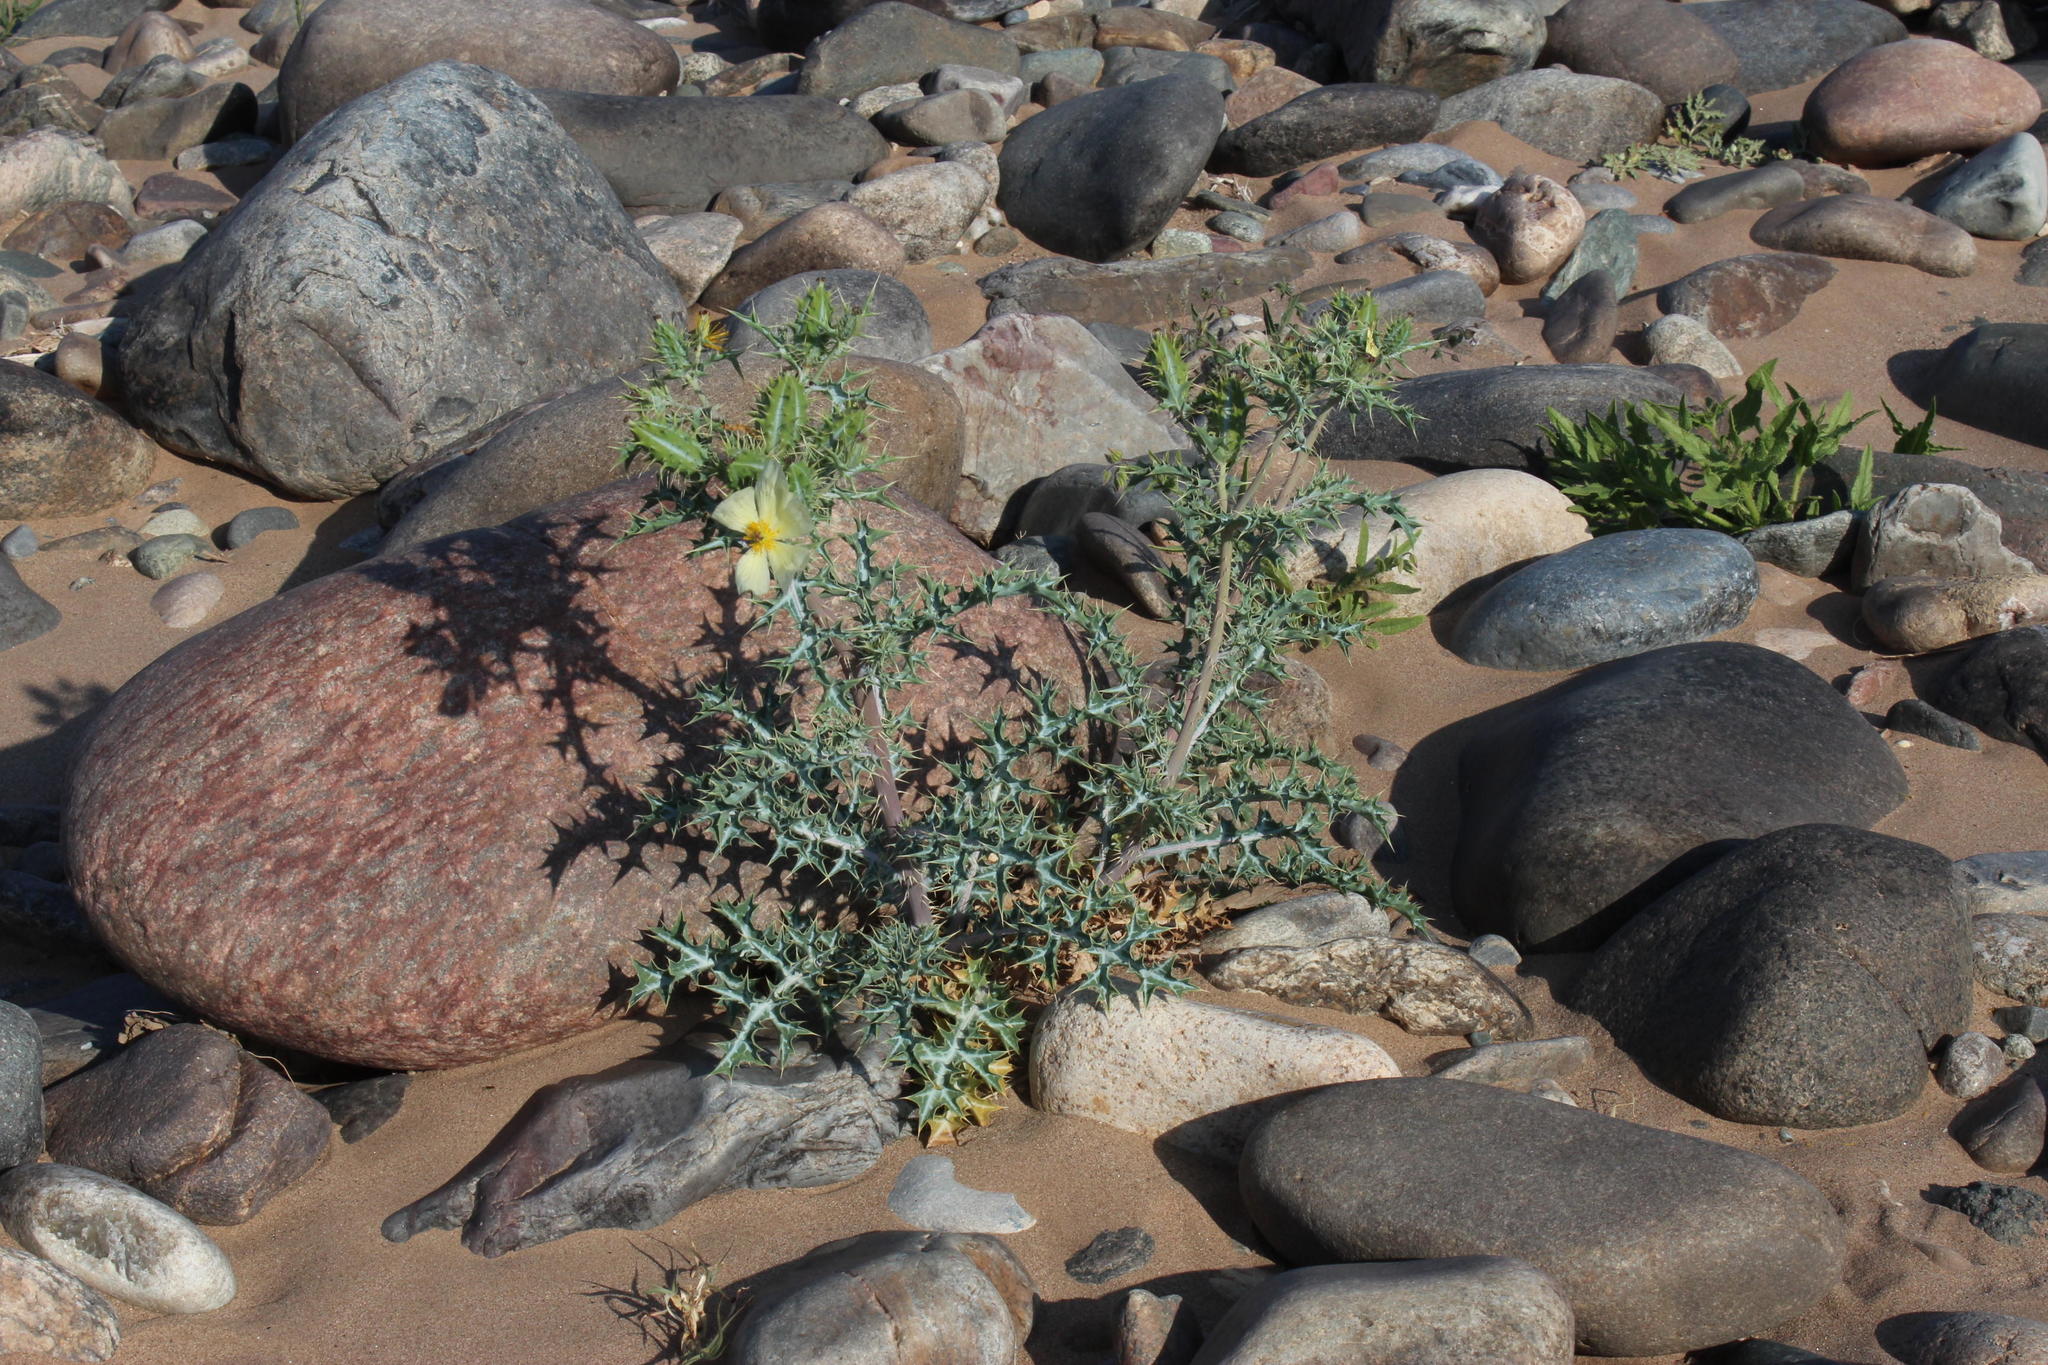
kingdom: Plantae
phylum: Tracheophyta
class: Magnoliopsida
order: Ranunculales
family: Papaveraceae
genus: Argemone
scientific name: Argemone ochroleuca
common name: White-flower mexican-poppy
